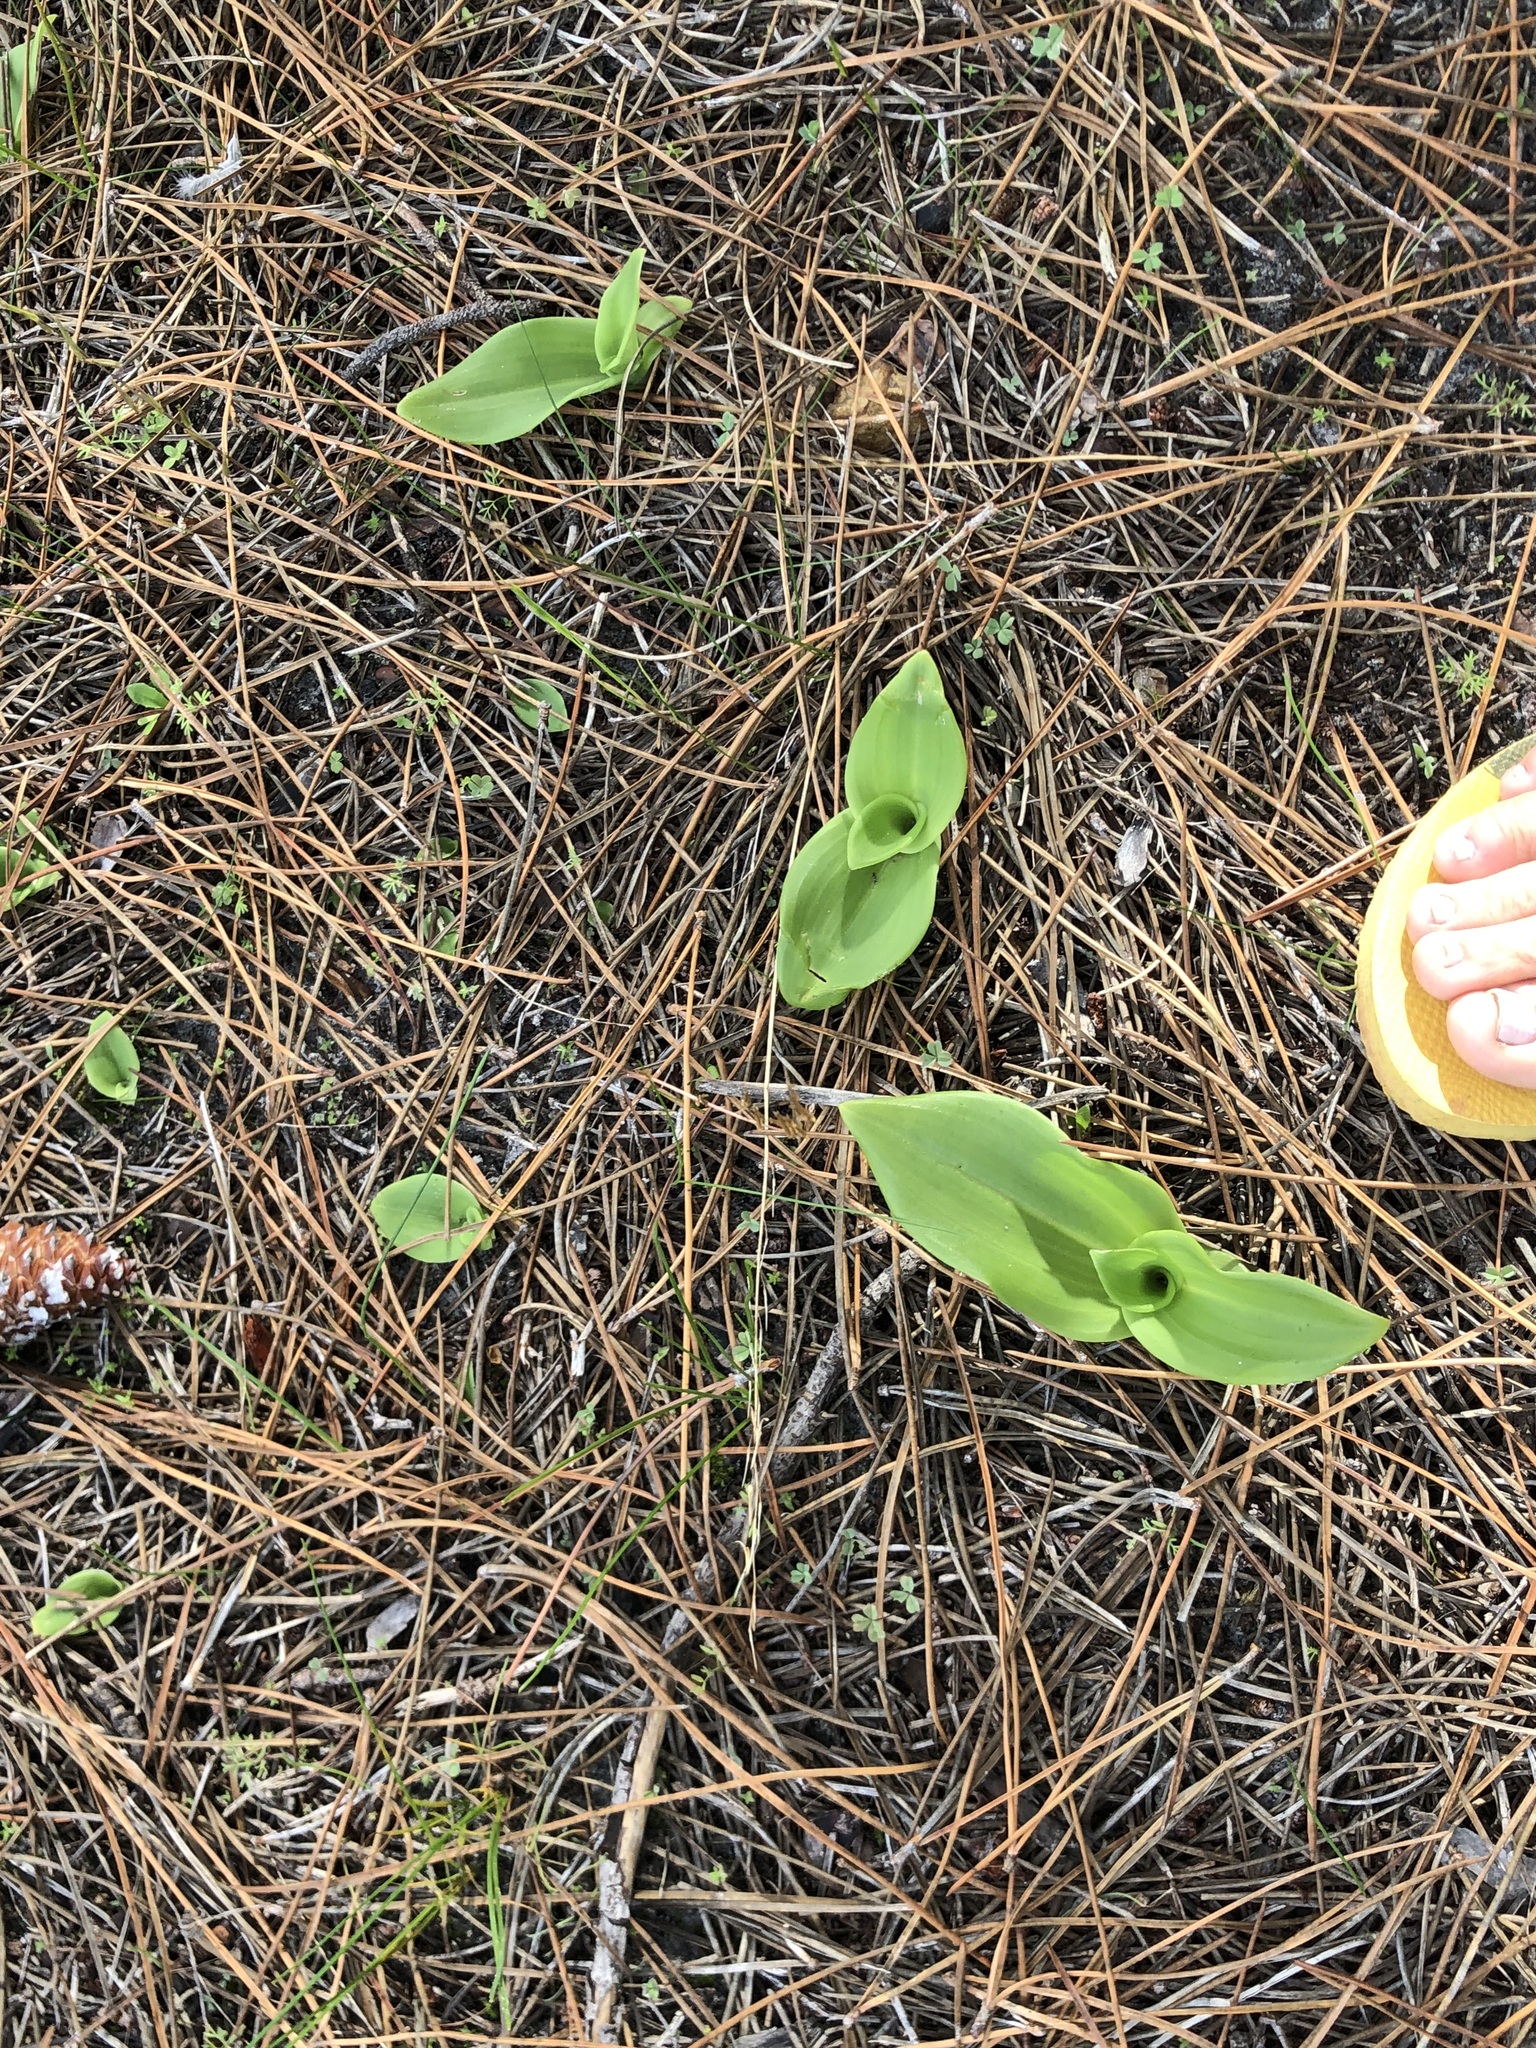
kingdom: Plantae
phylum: Tracheophyta
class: Liliopsida
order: Asparagales
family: Orchidaceae
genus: Satyrium
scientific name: Satyrium odorum
